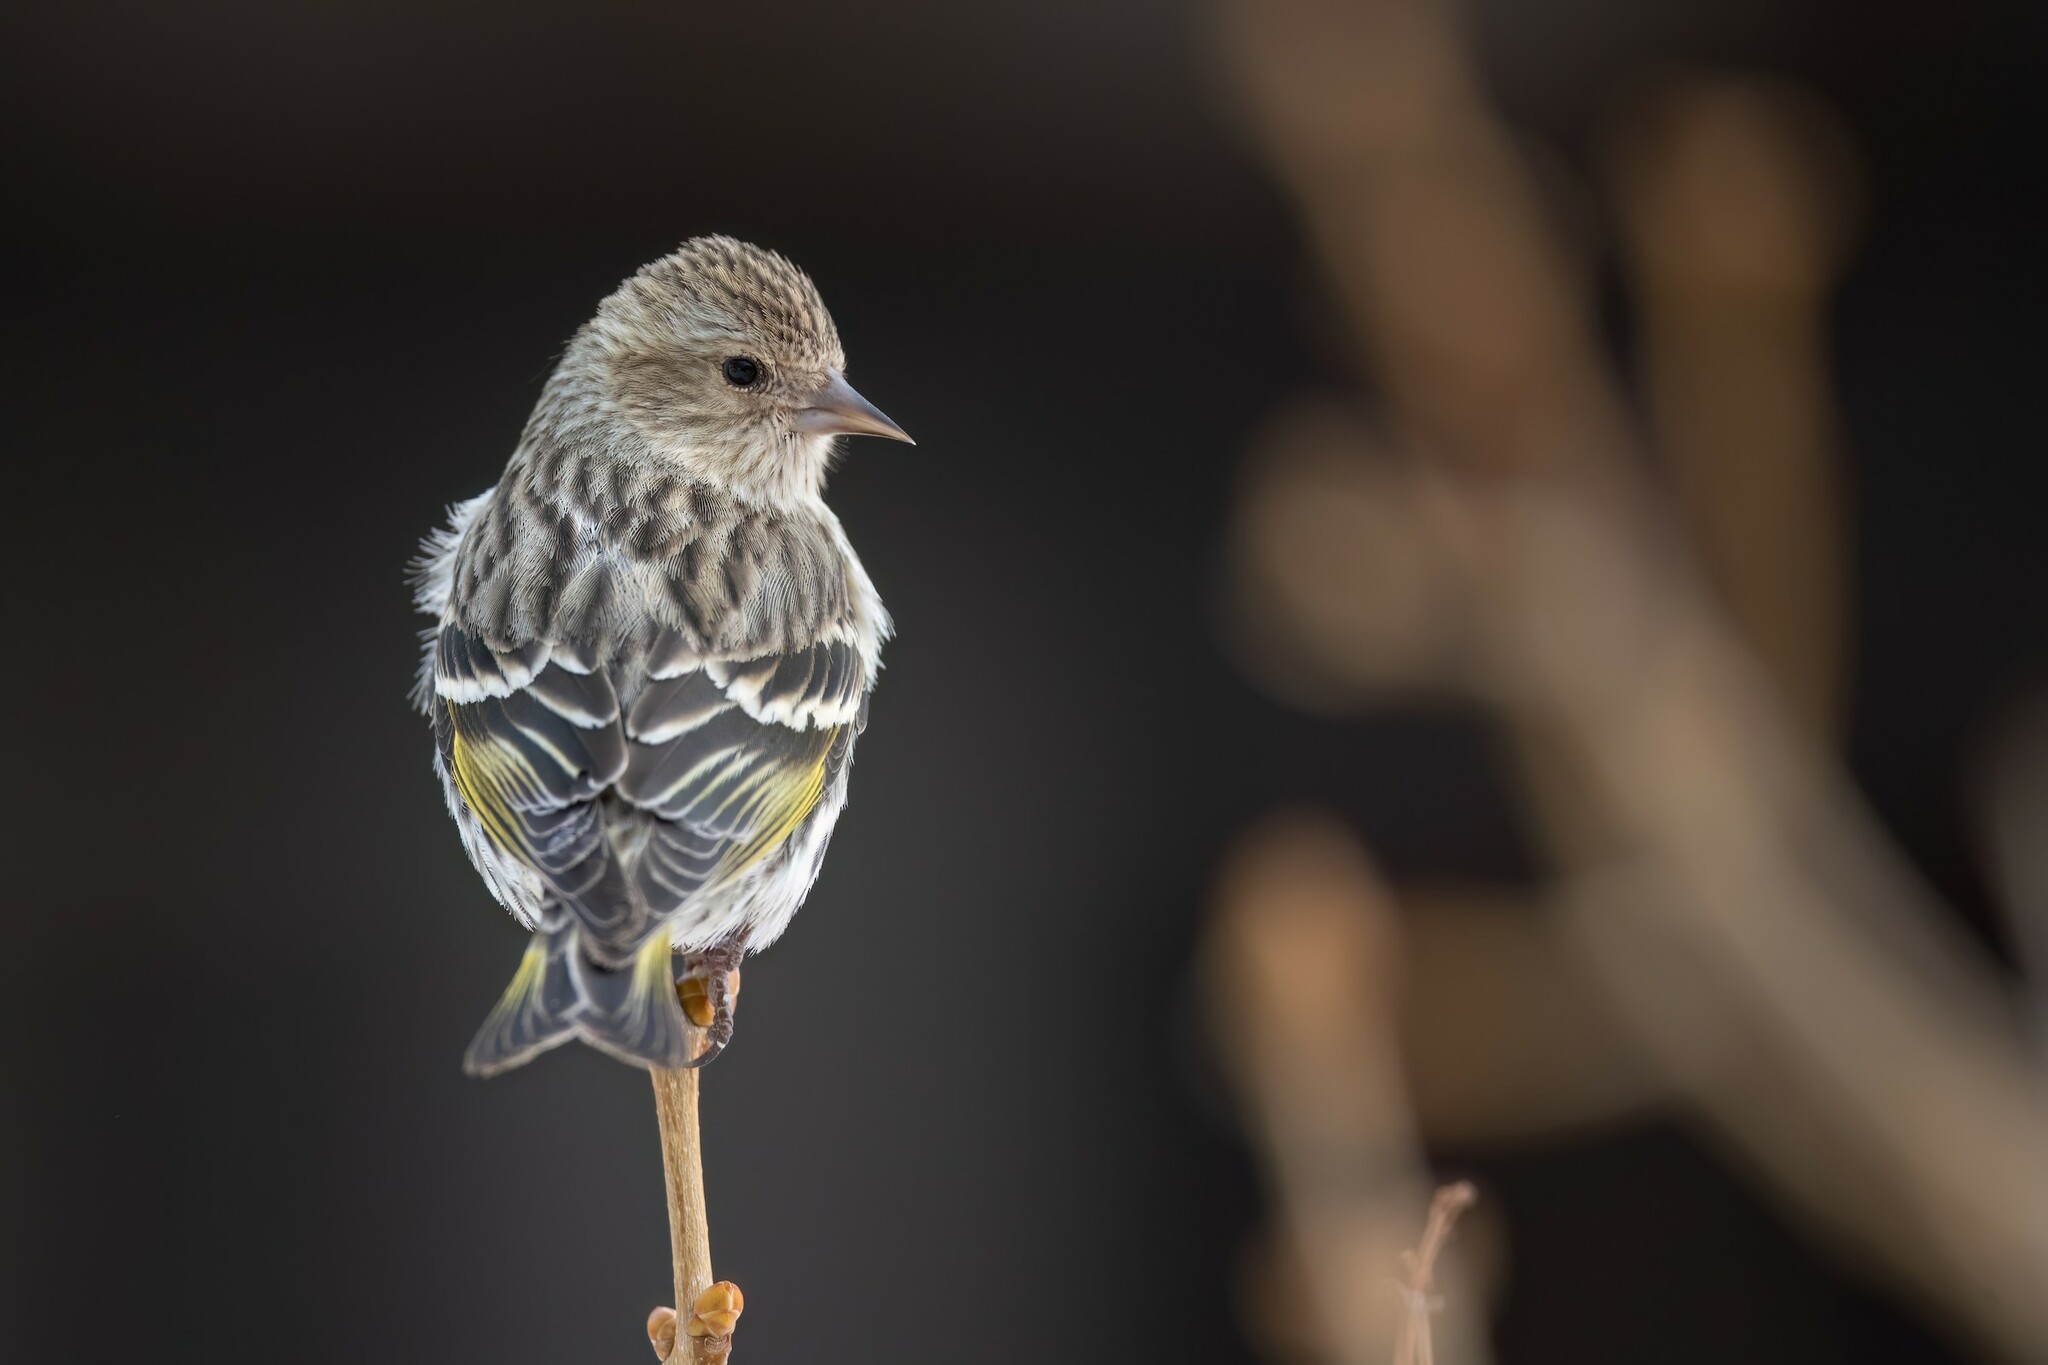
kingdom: Animalia
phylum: Chordata
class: Aves
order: Passeriformes
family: Fringillidae
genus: Spinus
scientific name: Spinus pinus
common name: Pine siskin
